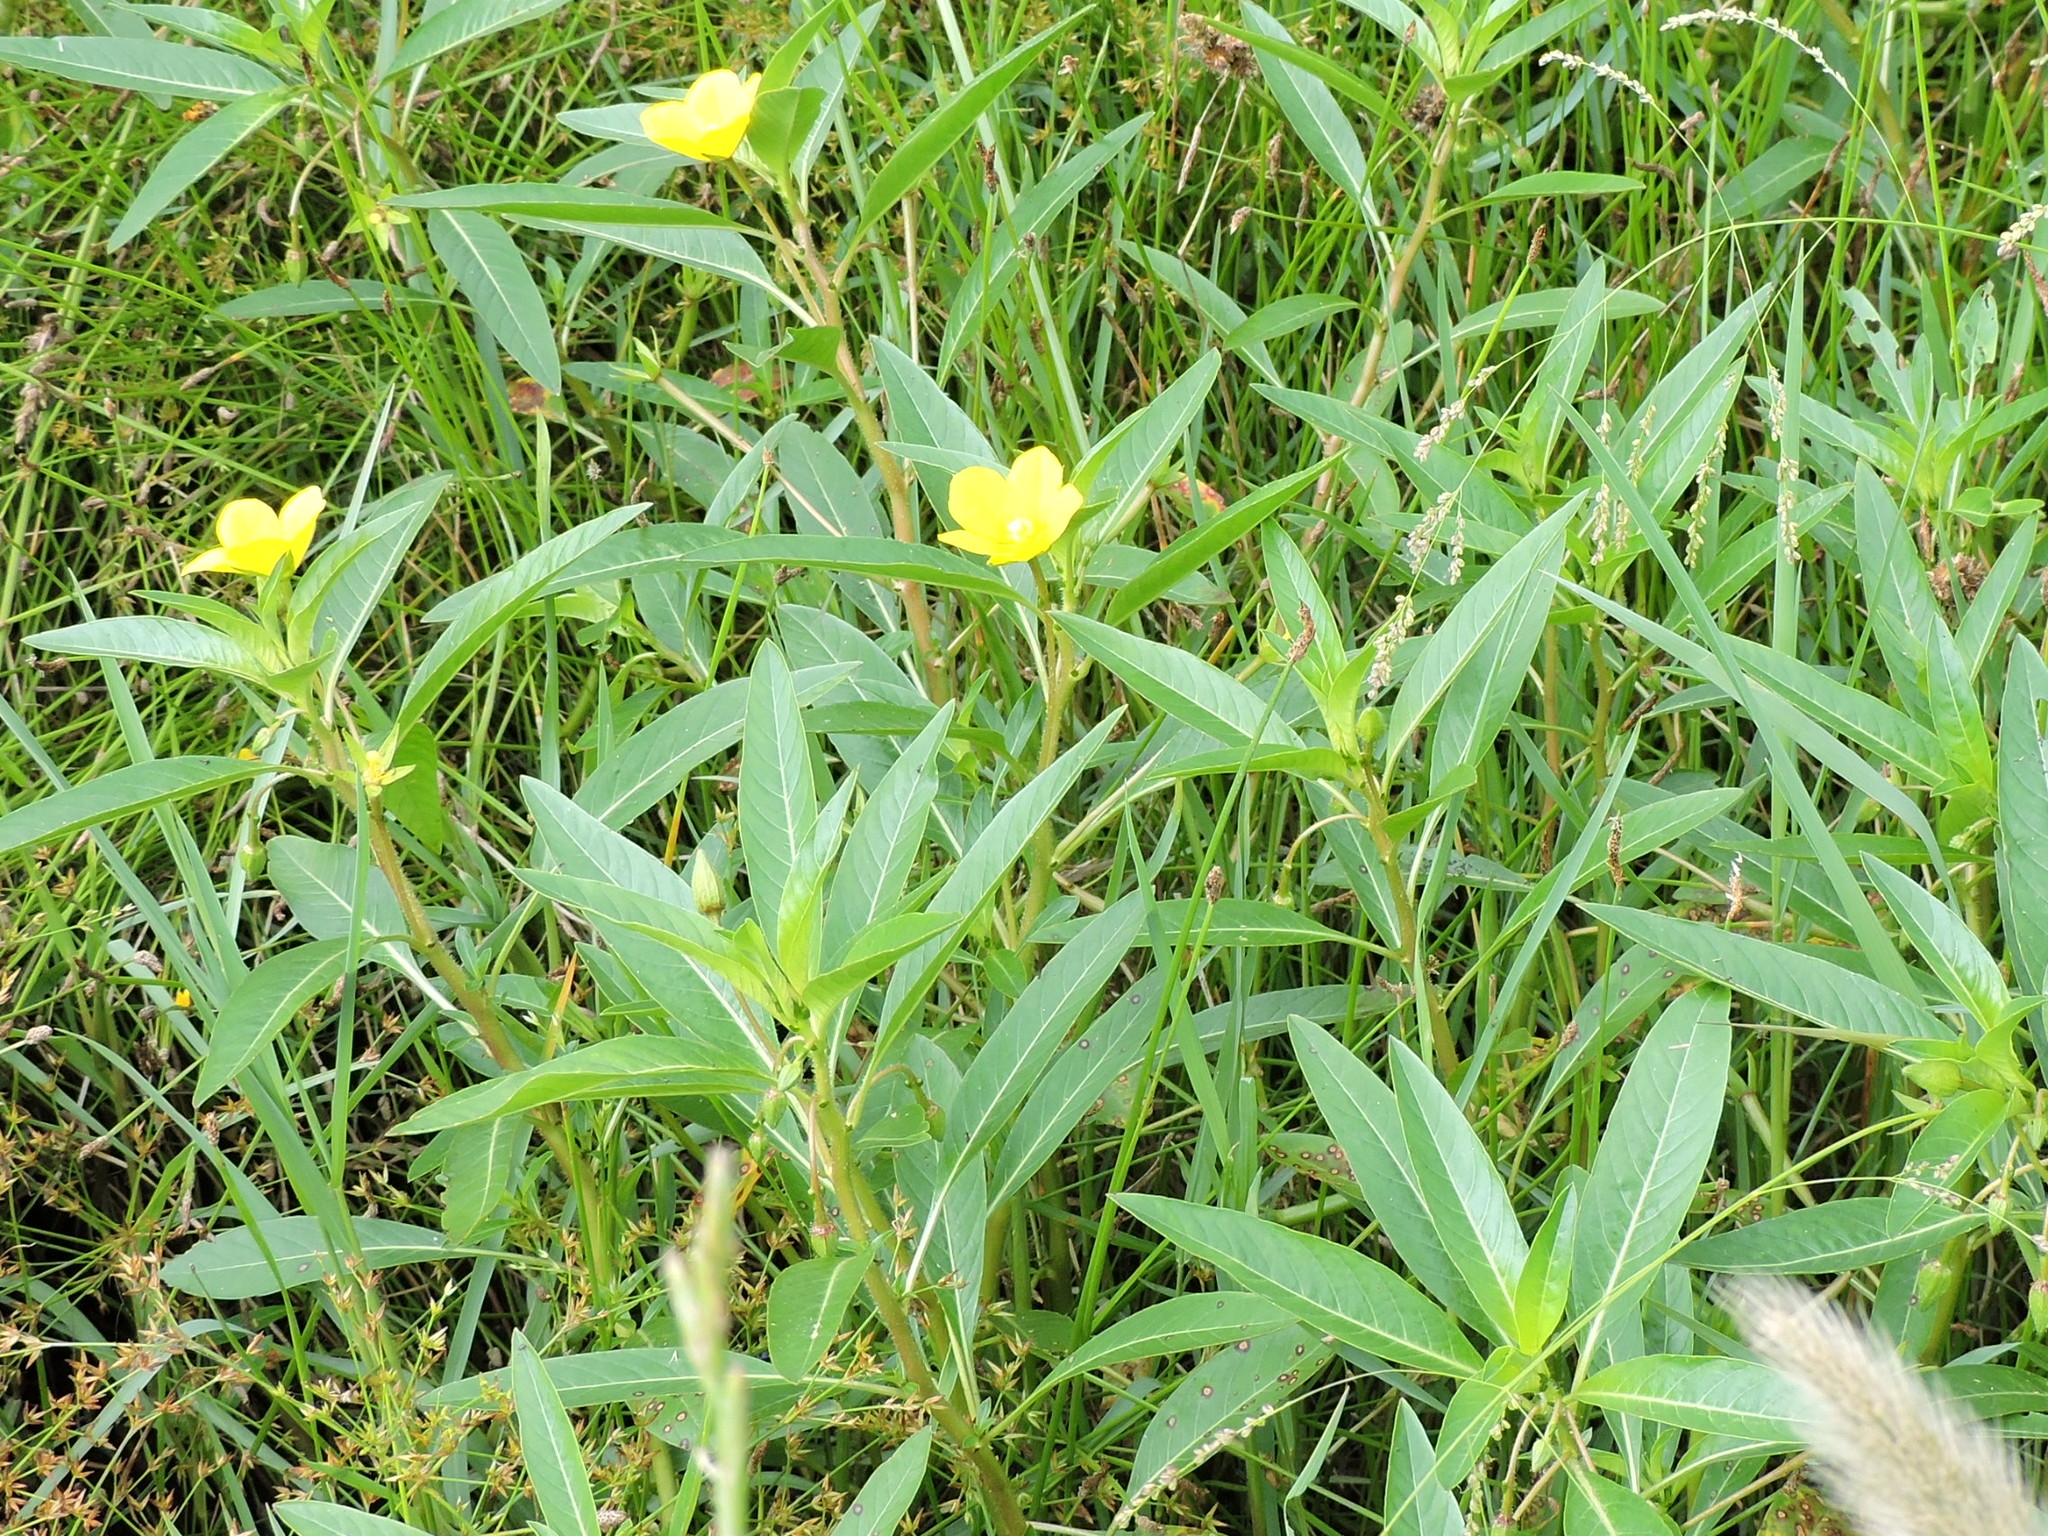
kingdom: Plantae
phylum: Tracheophyta
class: Magnoliopsida
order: Myrtales
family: Onagraceae
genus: Ludwigia
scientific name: Ludwigia peploides
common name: Floating primrose-willow
